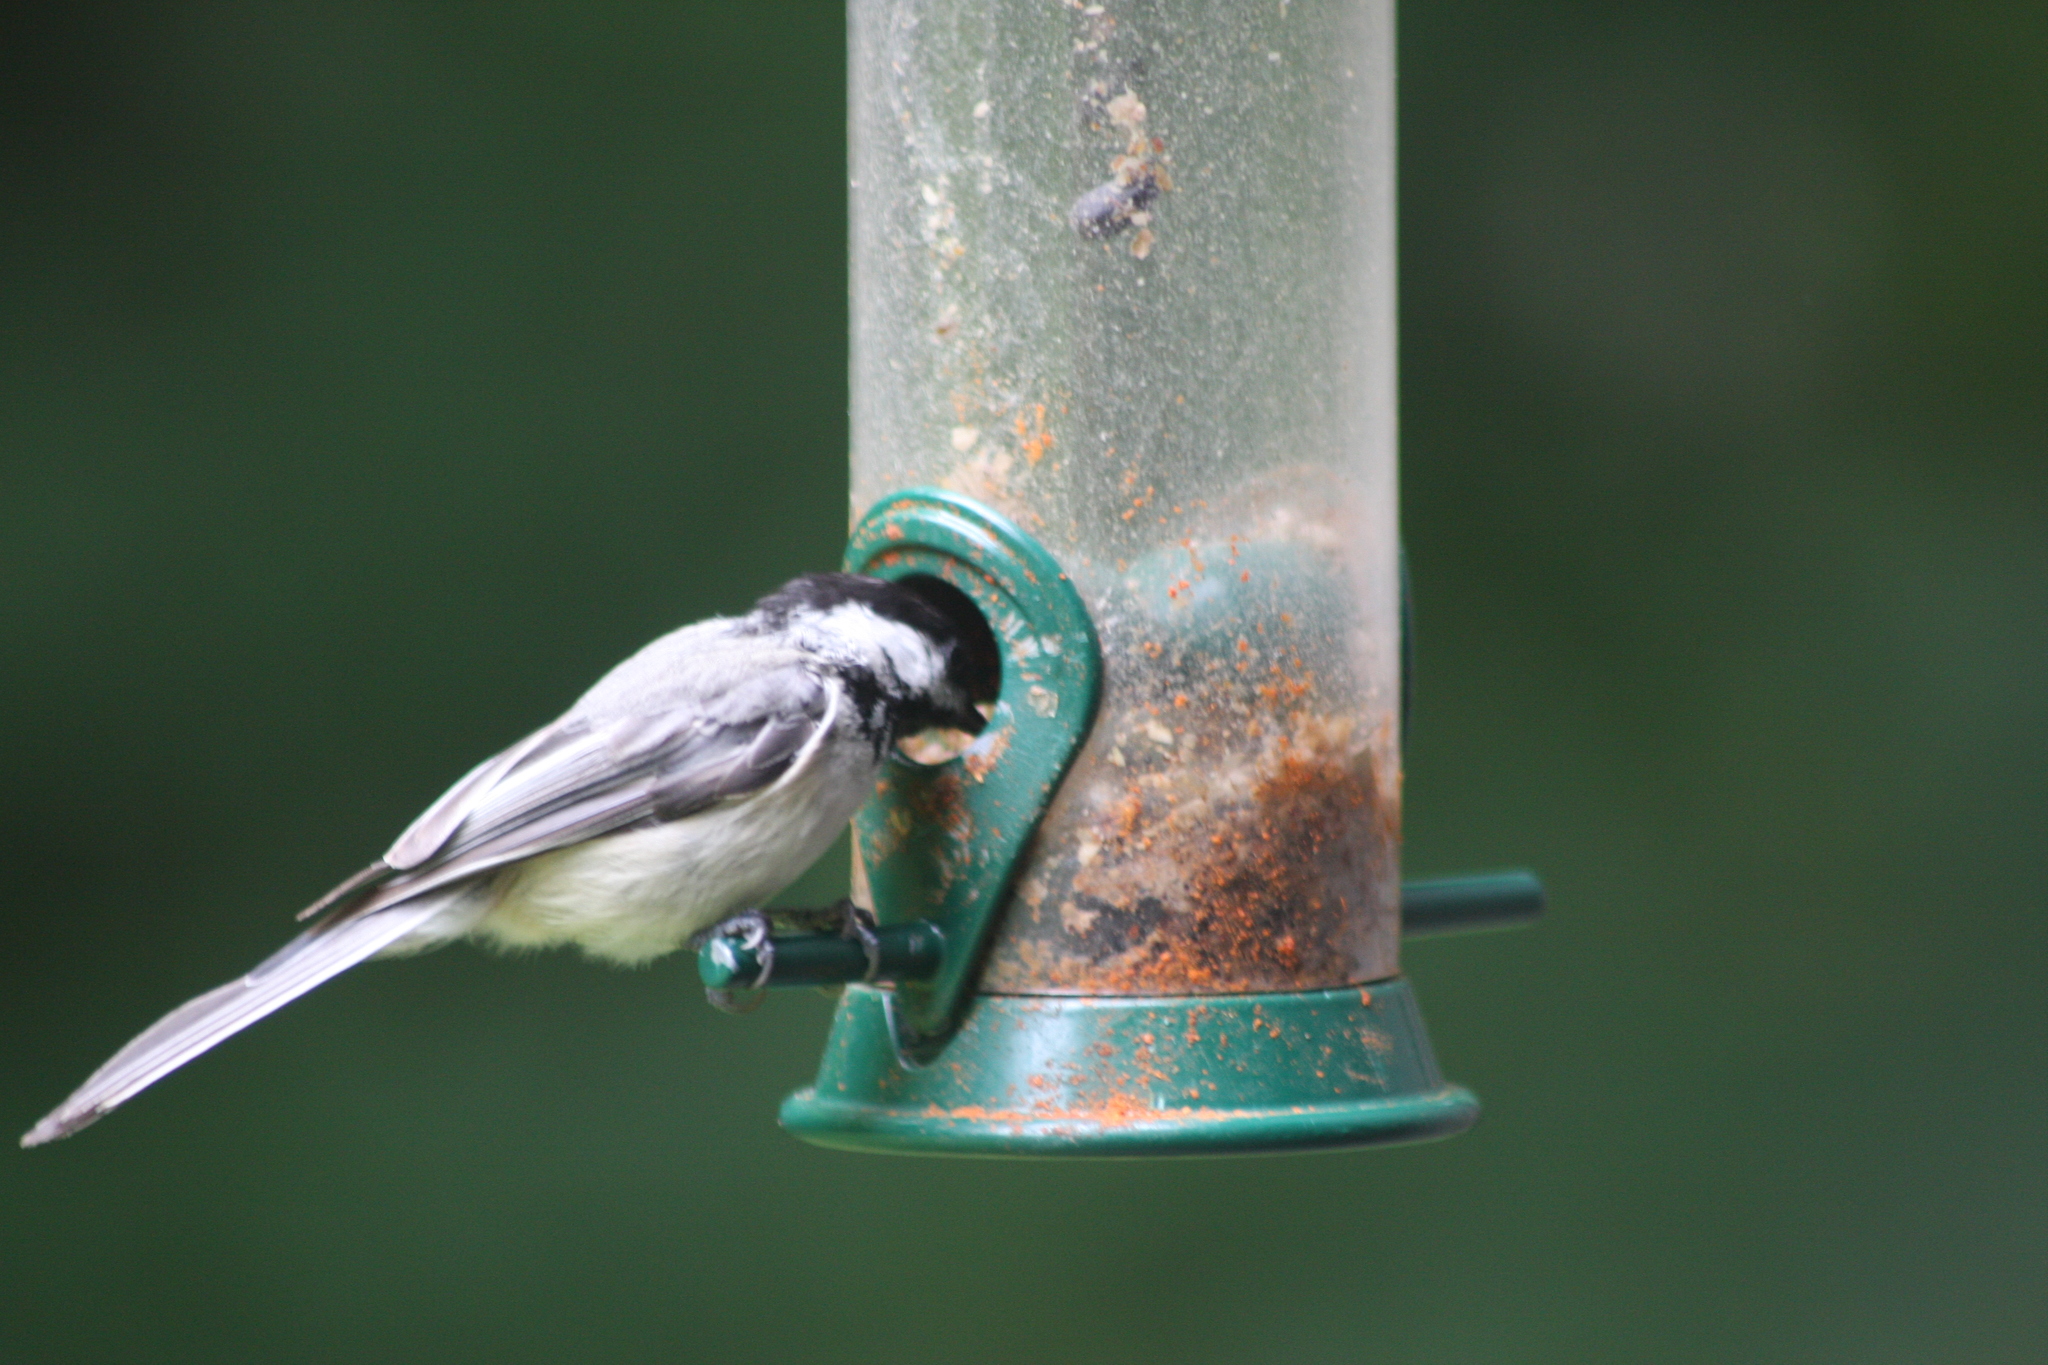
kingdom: Animalia
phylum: Chordata
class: Aves
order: Passeriformes
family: Paridae
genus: Poecile
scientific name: Poecile atricapillus
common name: Black-capped chickadee
